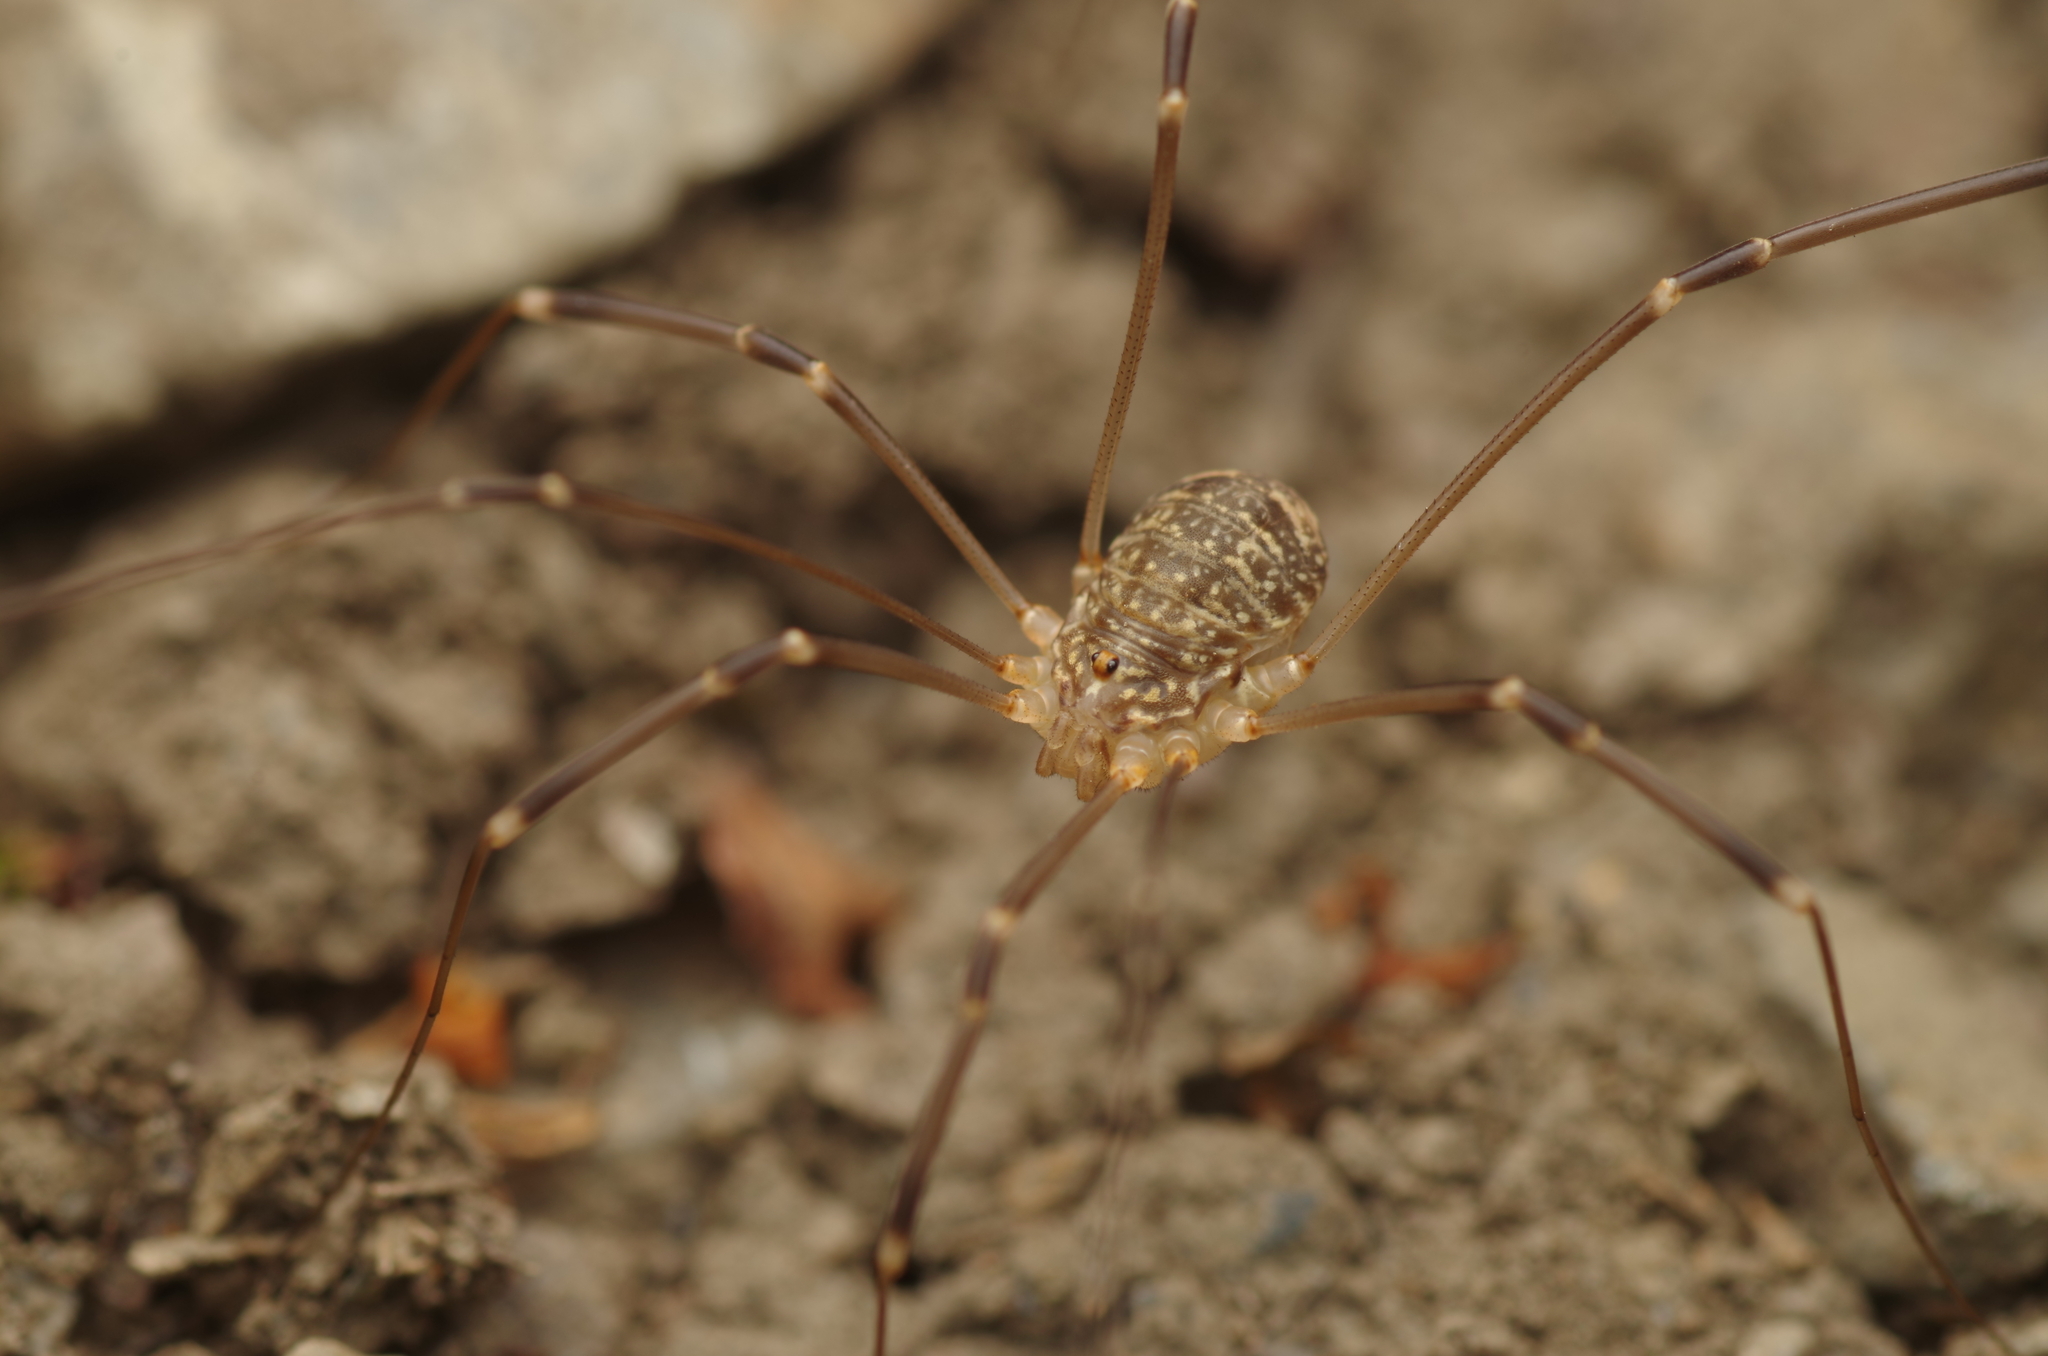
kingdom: Animalia
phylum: Arthropoda
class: Arachnida
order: Opiliones
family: Sclerosomatidae
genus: Nelima
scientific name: Nelima gothica
